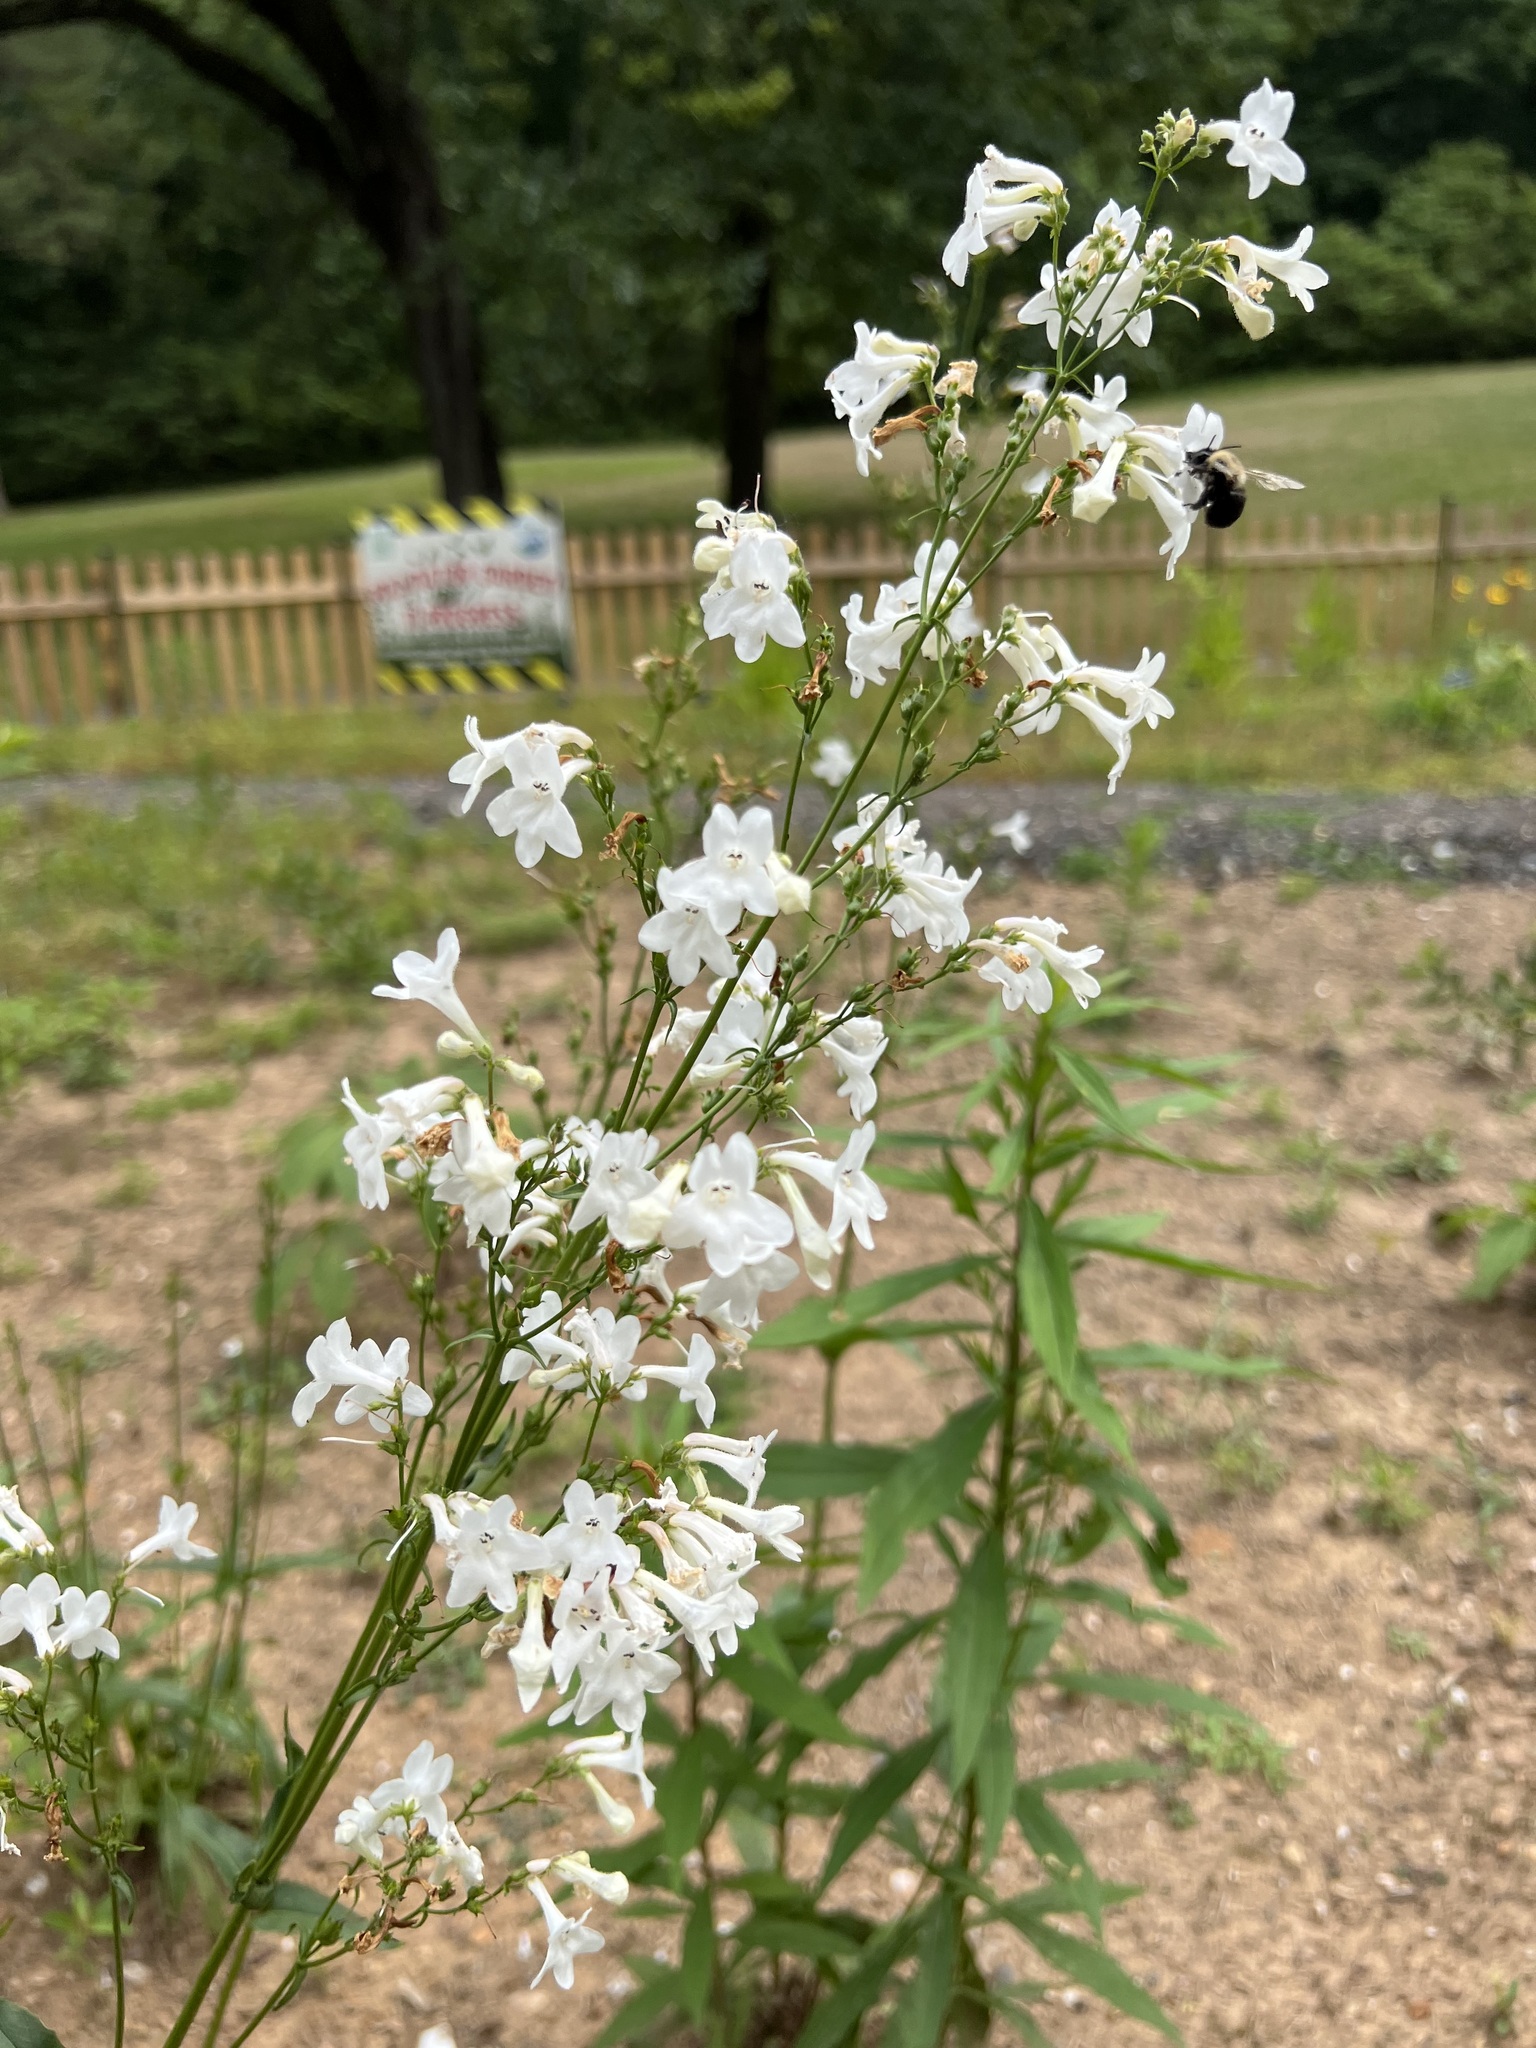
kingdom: Plantae
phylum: Tracheophyta
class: Magnoliopsida
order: Lamiales
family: Plantaginaceae
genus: Penstemon
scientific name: Penstemon tubaeflorus
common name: White wand beardtongue
